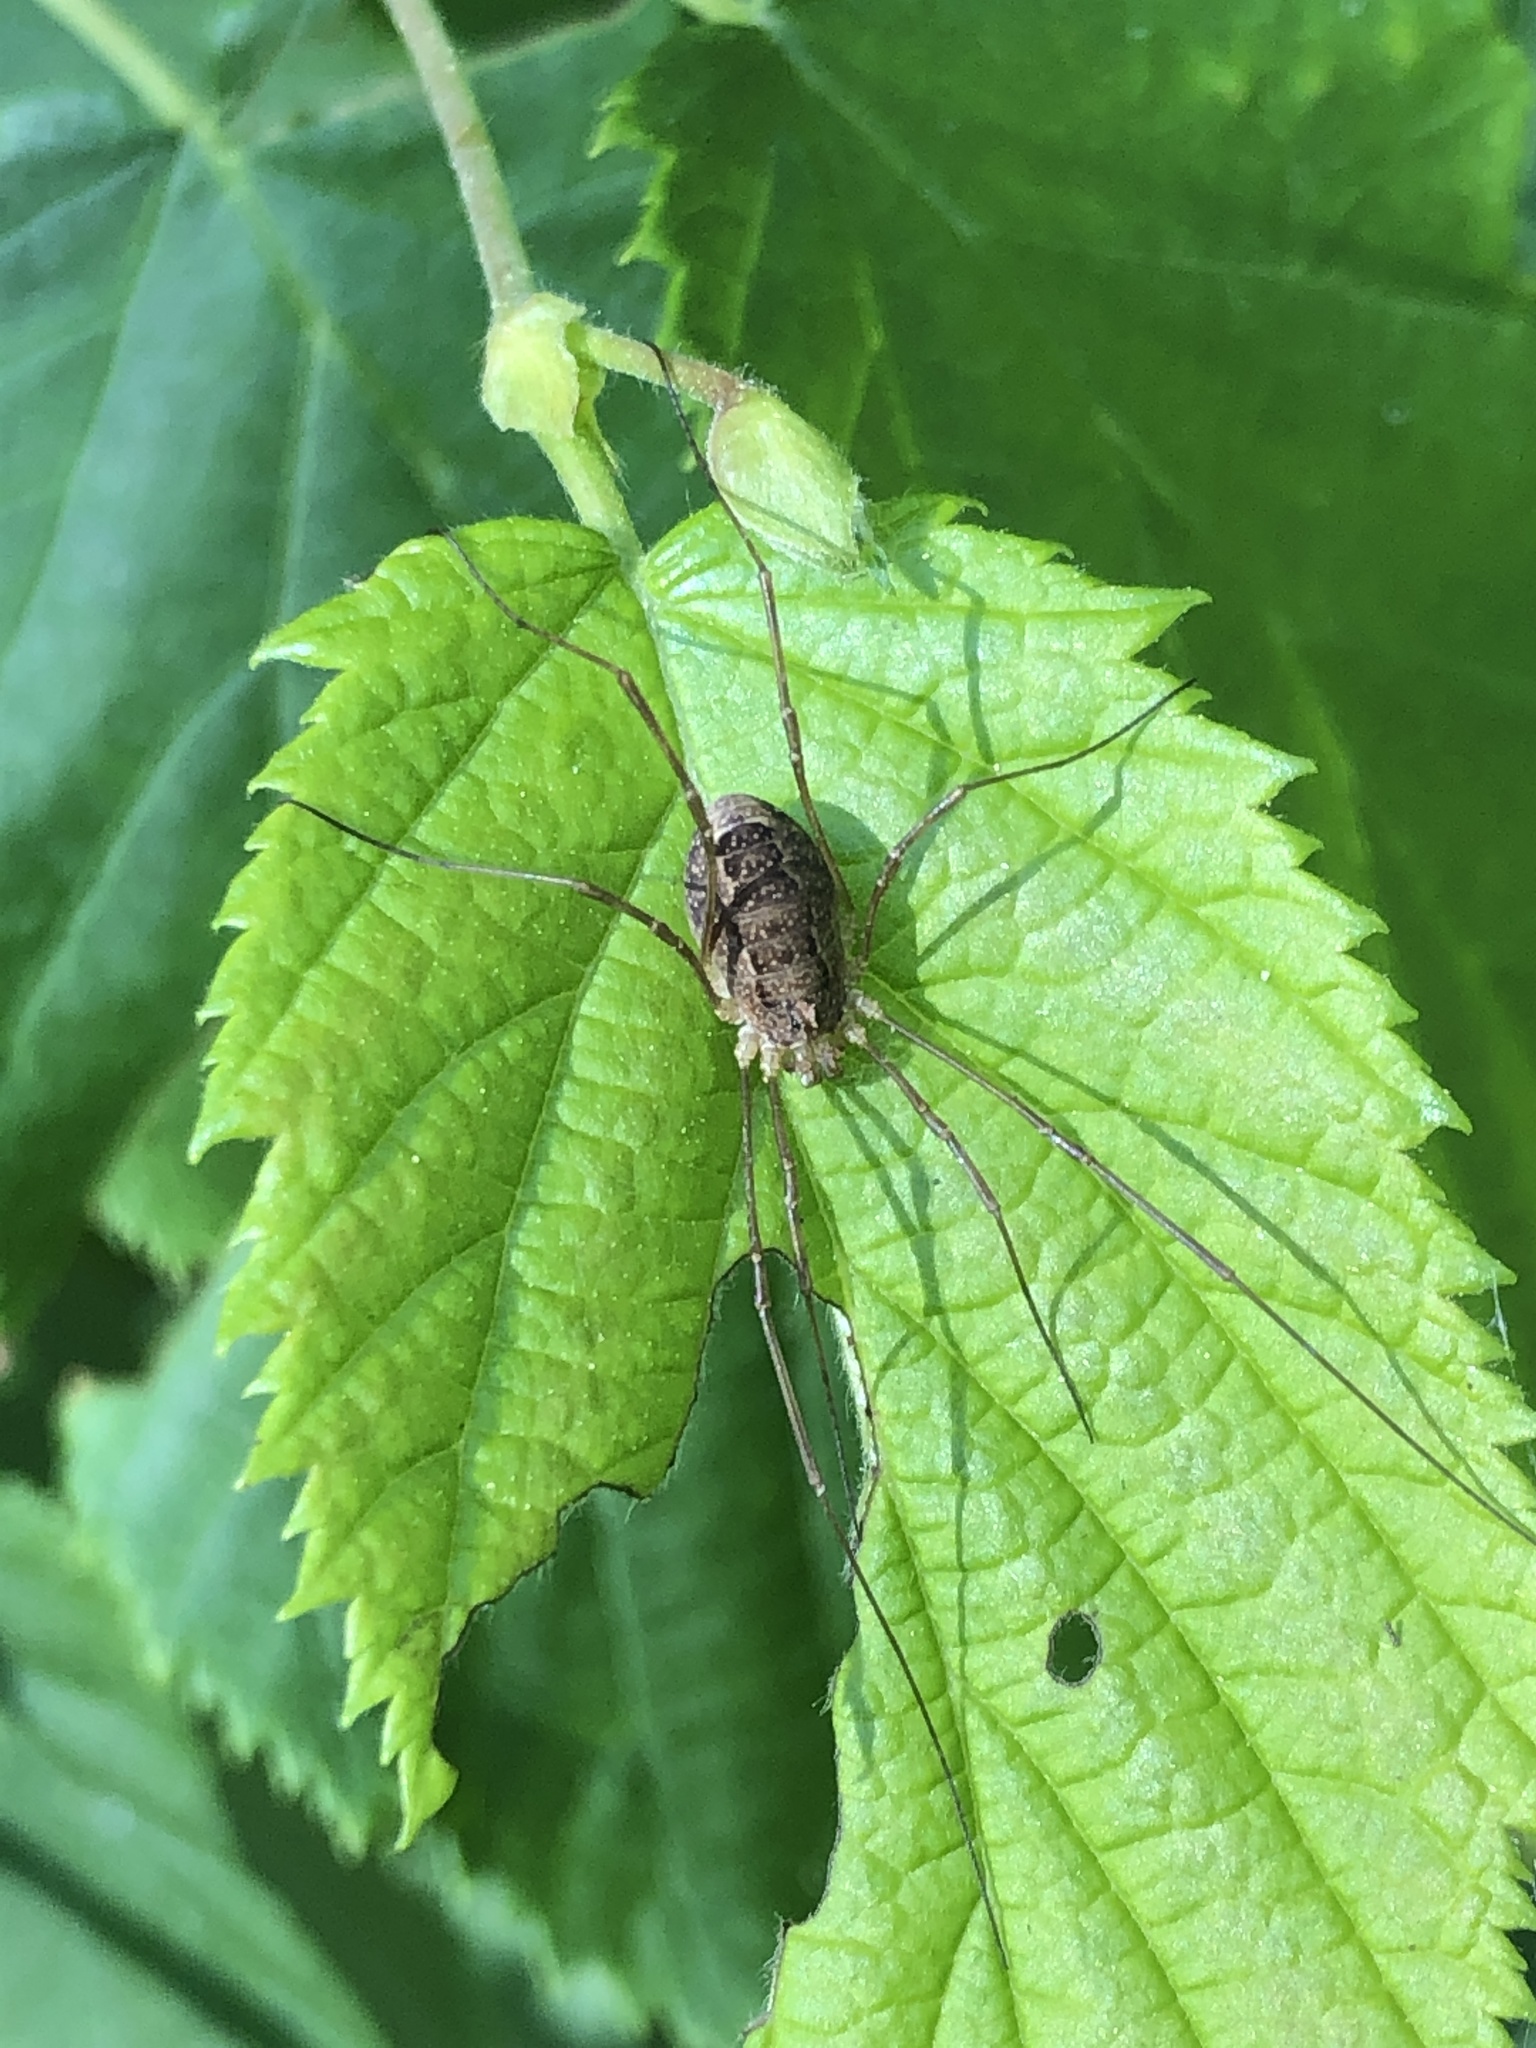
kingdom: Animalia
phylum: Arthropoda
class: Arachnida
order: Opiliones
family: Phalangiidae
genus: Rilaena
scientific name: Rilaena triangularis
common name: Spring harvestman
